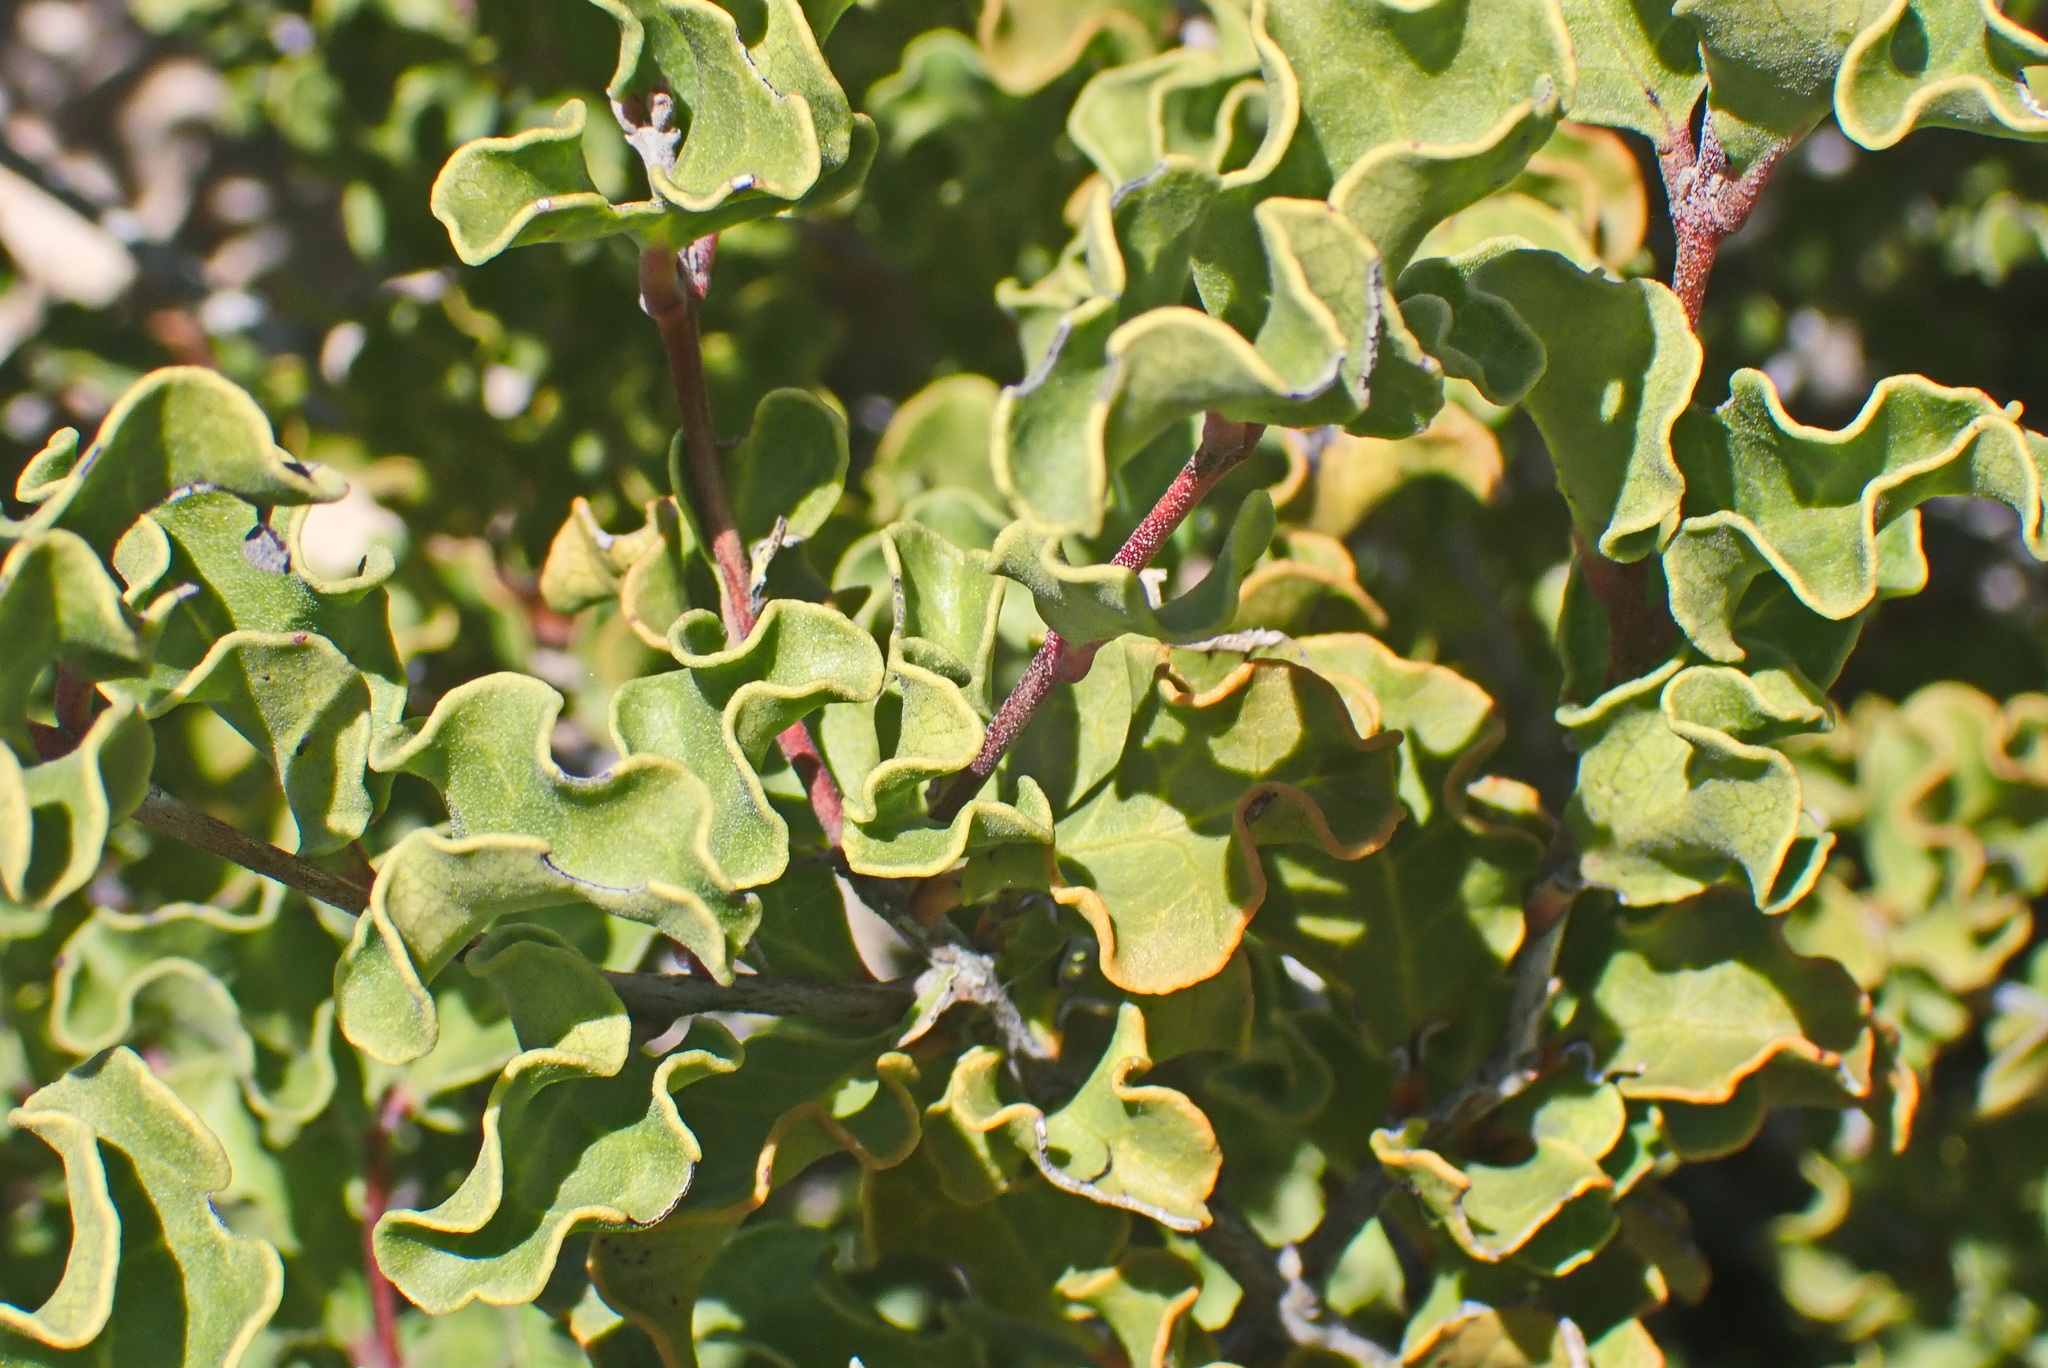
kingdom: Plantae
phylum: Tracheophyta
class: Magnoliopsida
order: Ericales
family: Ebenaceae
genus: Euclea
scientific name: Euclea undulata
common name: Small-leaved guarri
